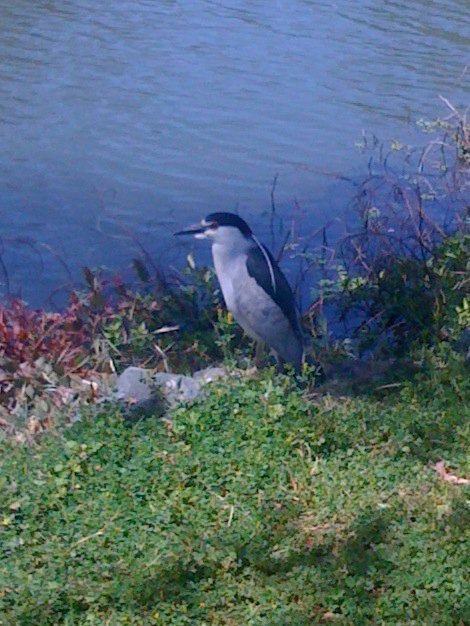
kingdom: Animalia
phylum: Chordata
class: Aves
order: Pelecaniformes
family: Ardeidae
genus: Nycticorax
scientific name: Nycticorax nycticorax
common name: Black-crowned night heron
